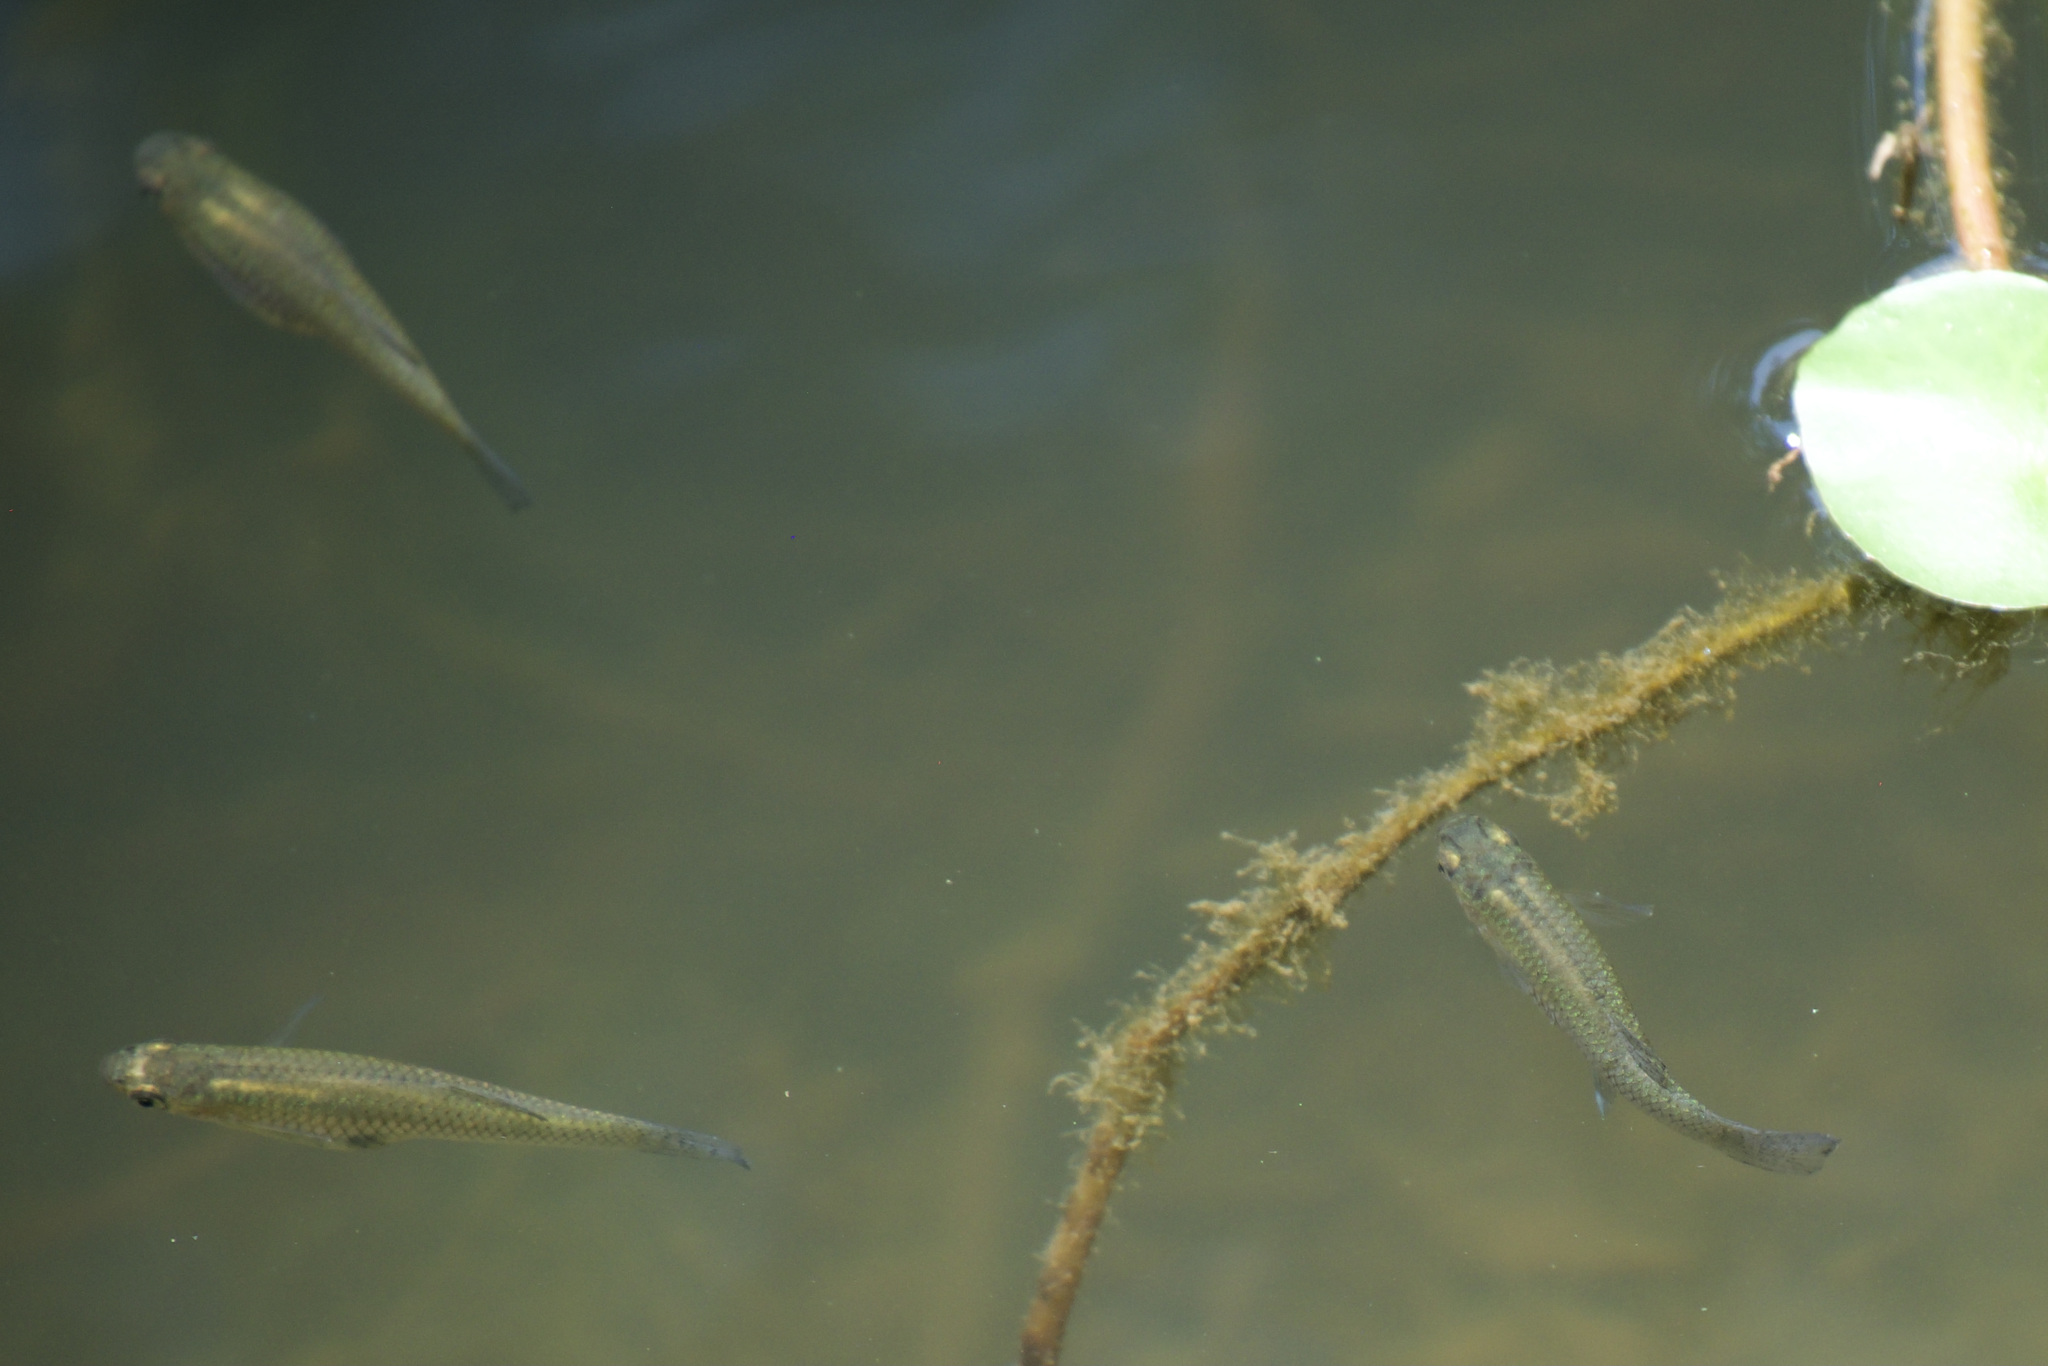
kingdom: Animalia
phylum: Chordata
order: Cyprinodontiformes
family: Poeciliidae
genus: Gambusia
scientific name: Gambusia holbrooki
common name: Eastern mosquitofish
